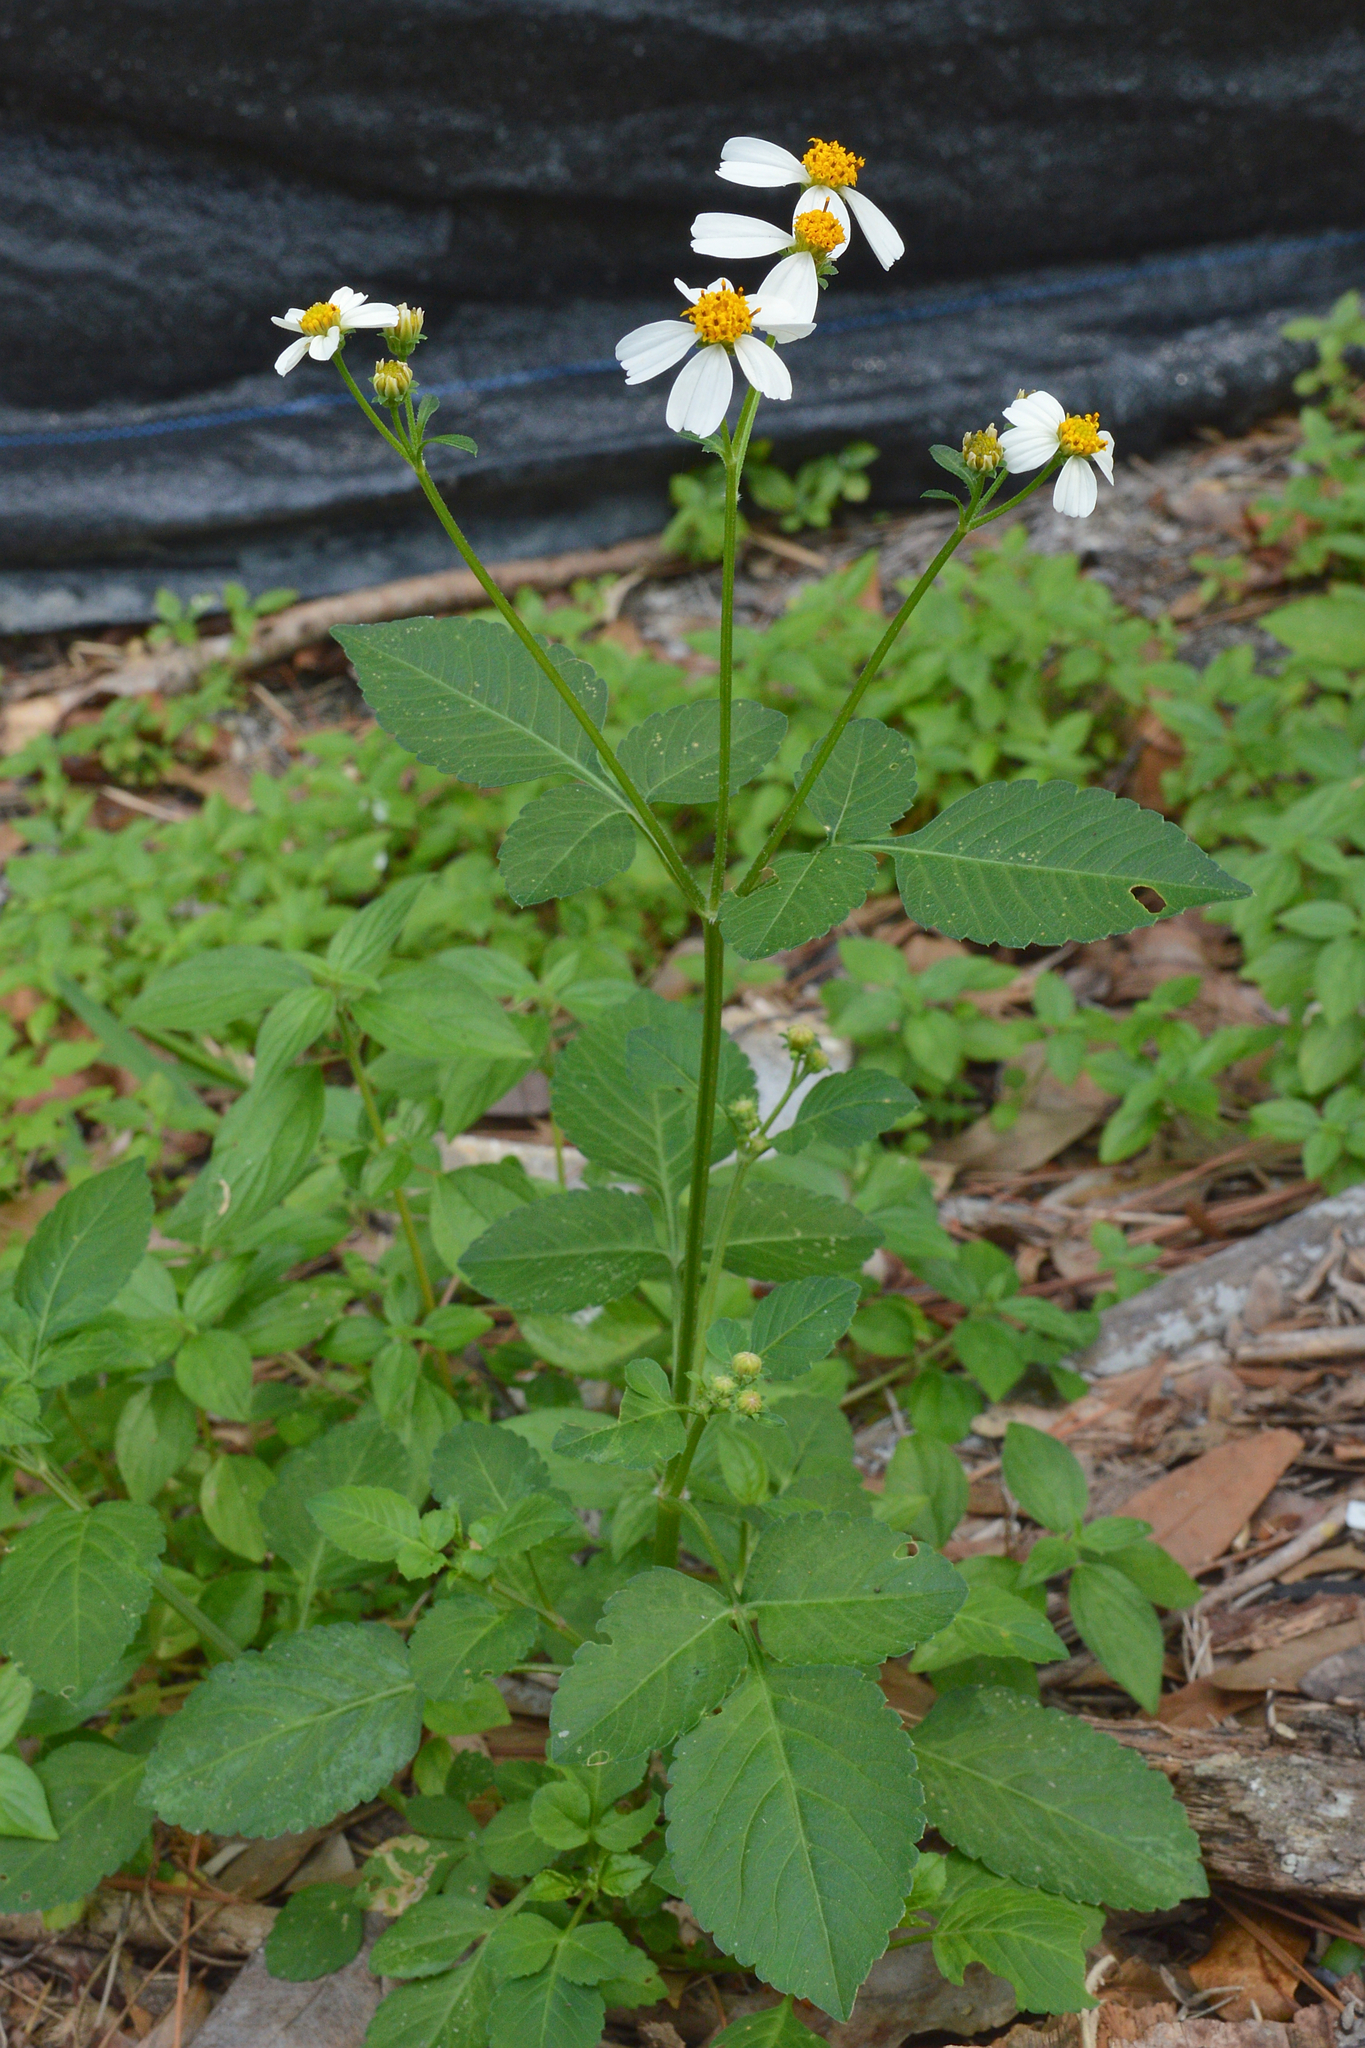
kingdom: Plantae
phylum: Tracheophyta
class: Magnoliopsida
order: Asterales
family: Asteraceae
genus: Bidens
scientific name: Bidens alba
